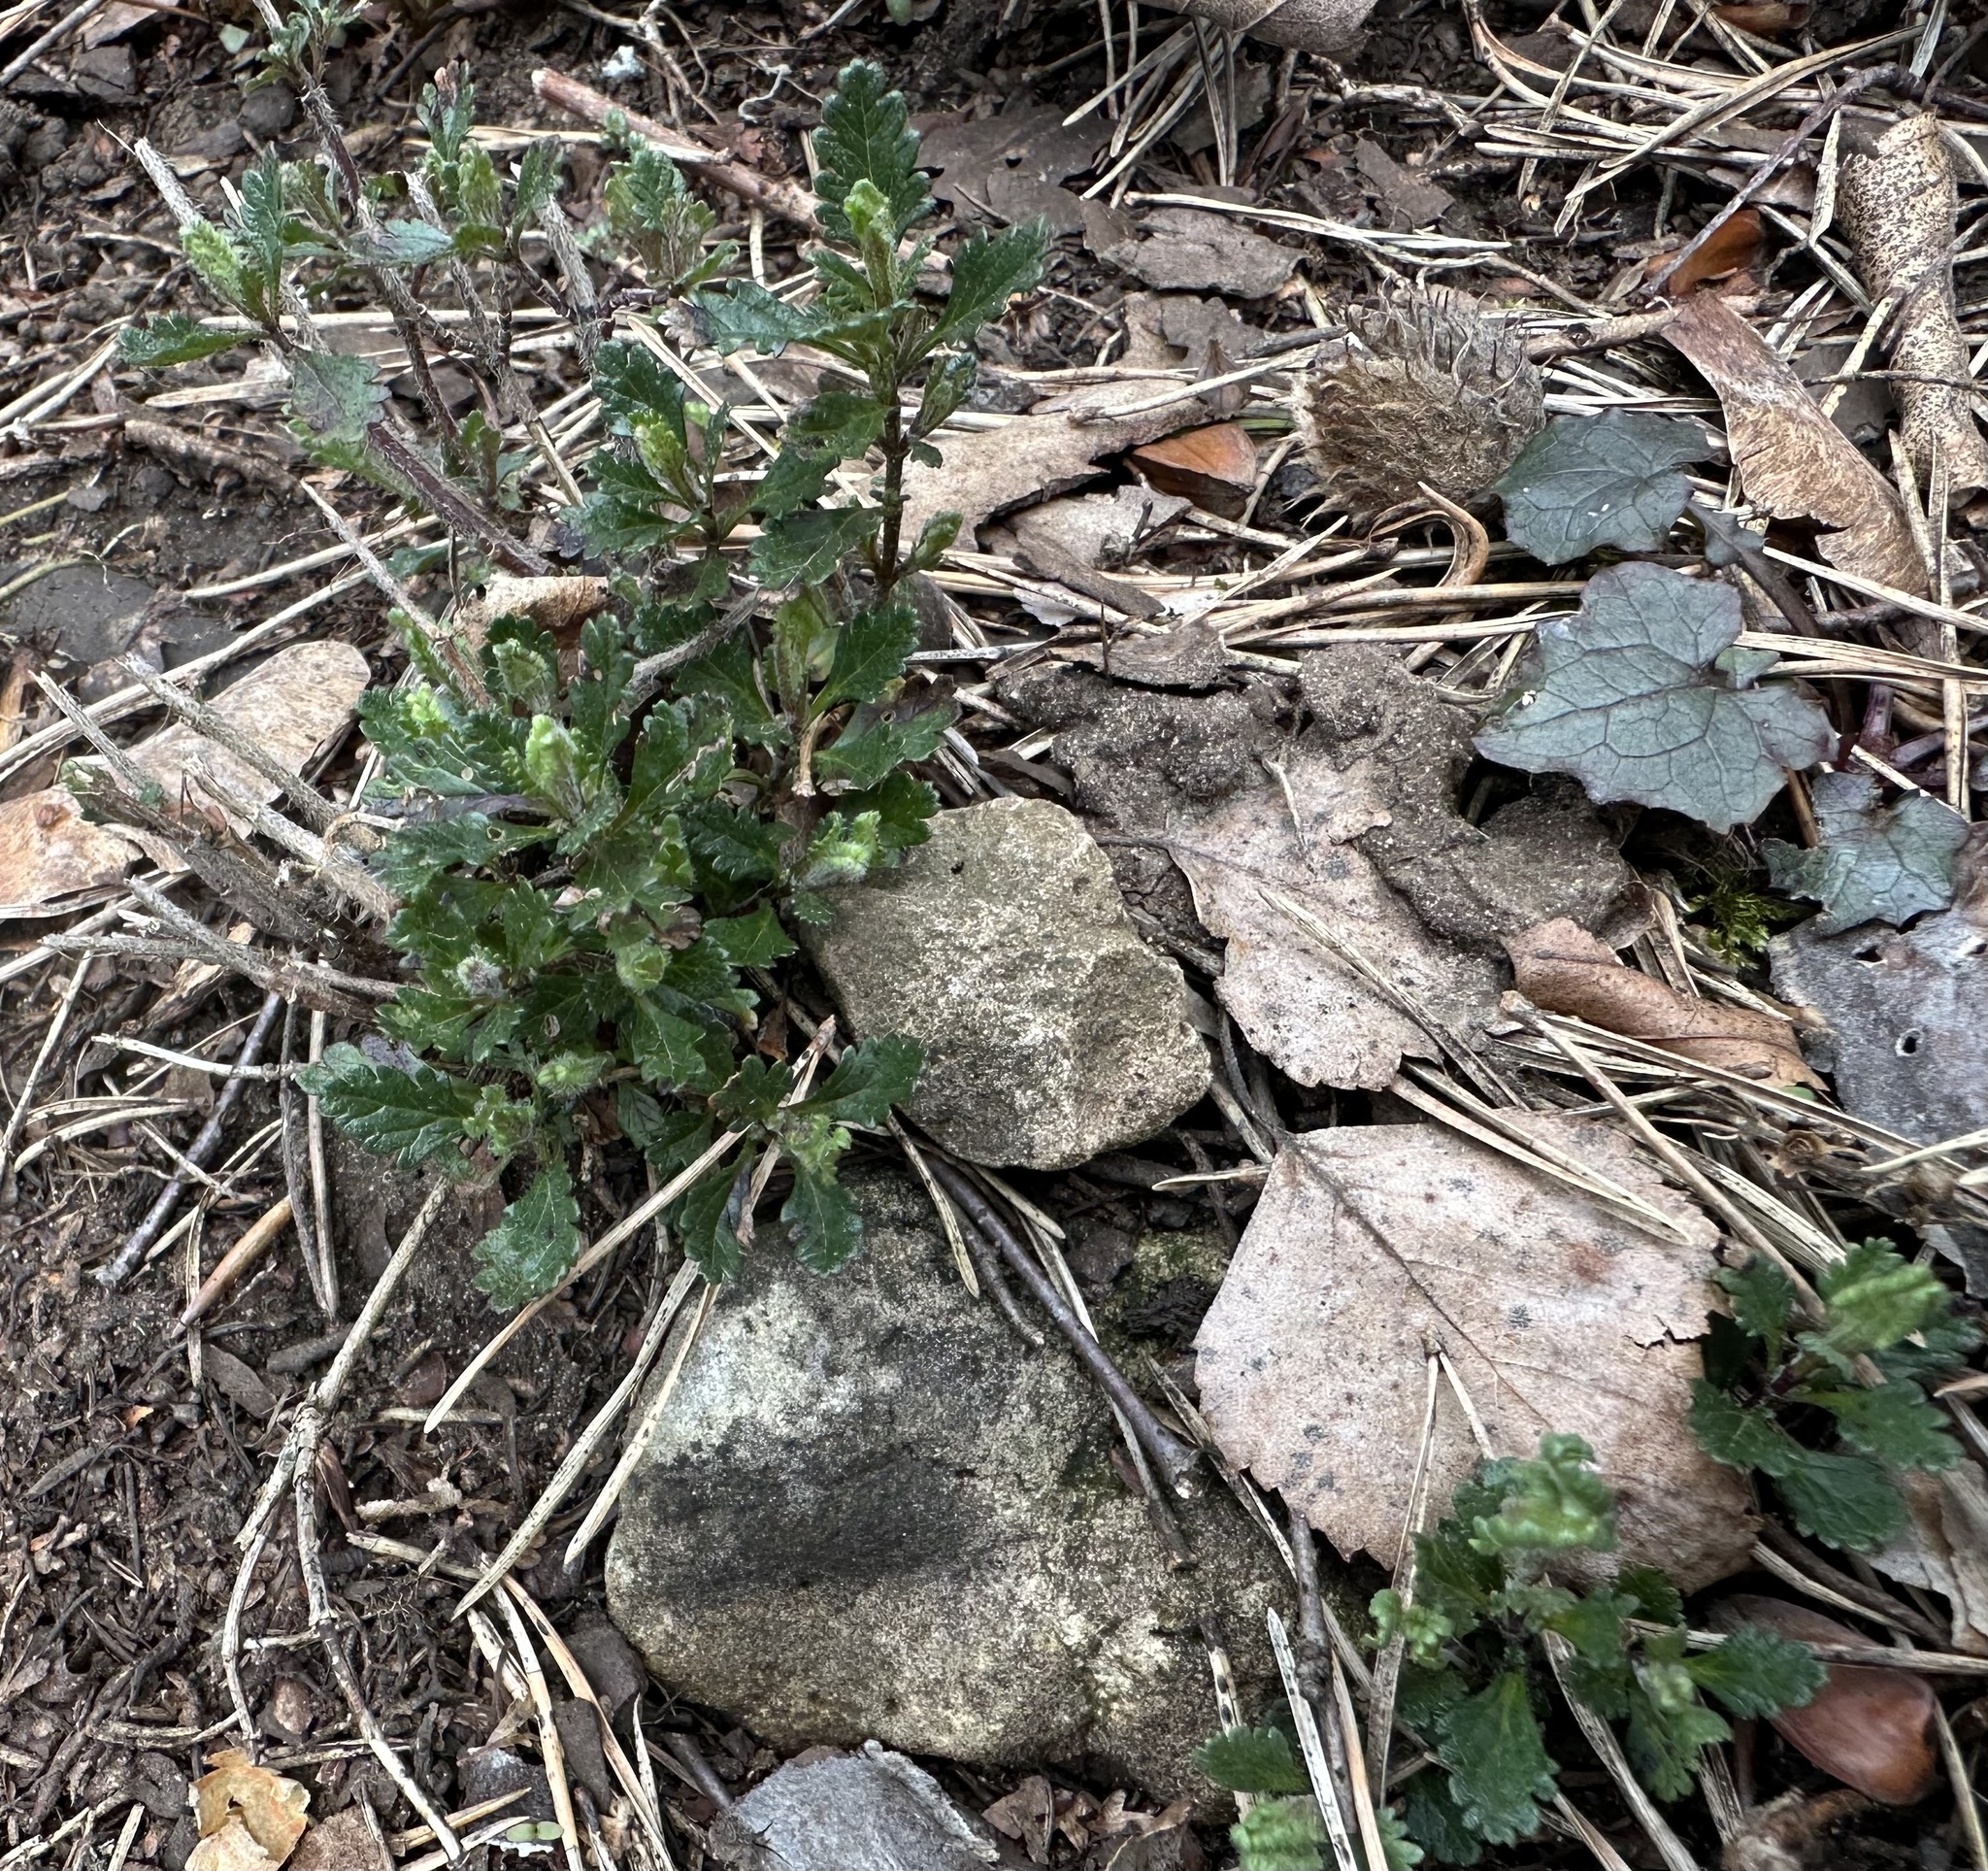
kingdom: Plantae
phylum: Tracheophyta
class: Magnoliopsida
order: Lamiales
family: Lamiaceae
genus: Teucrium
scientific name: Teucrium chamaedrys
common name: Wall germander
